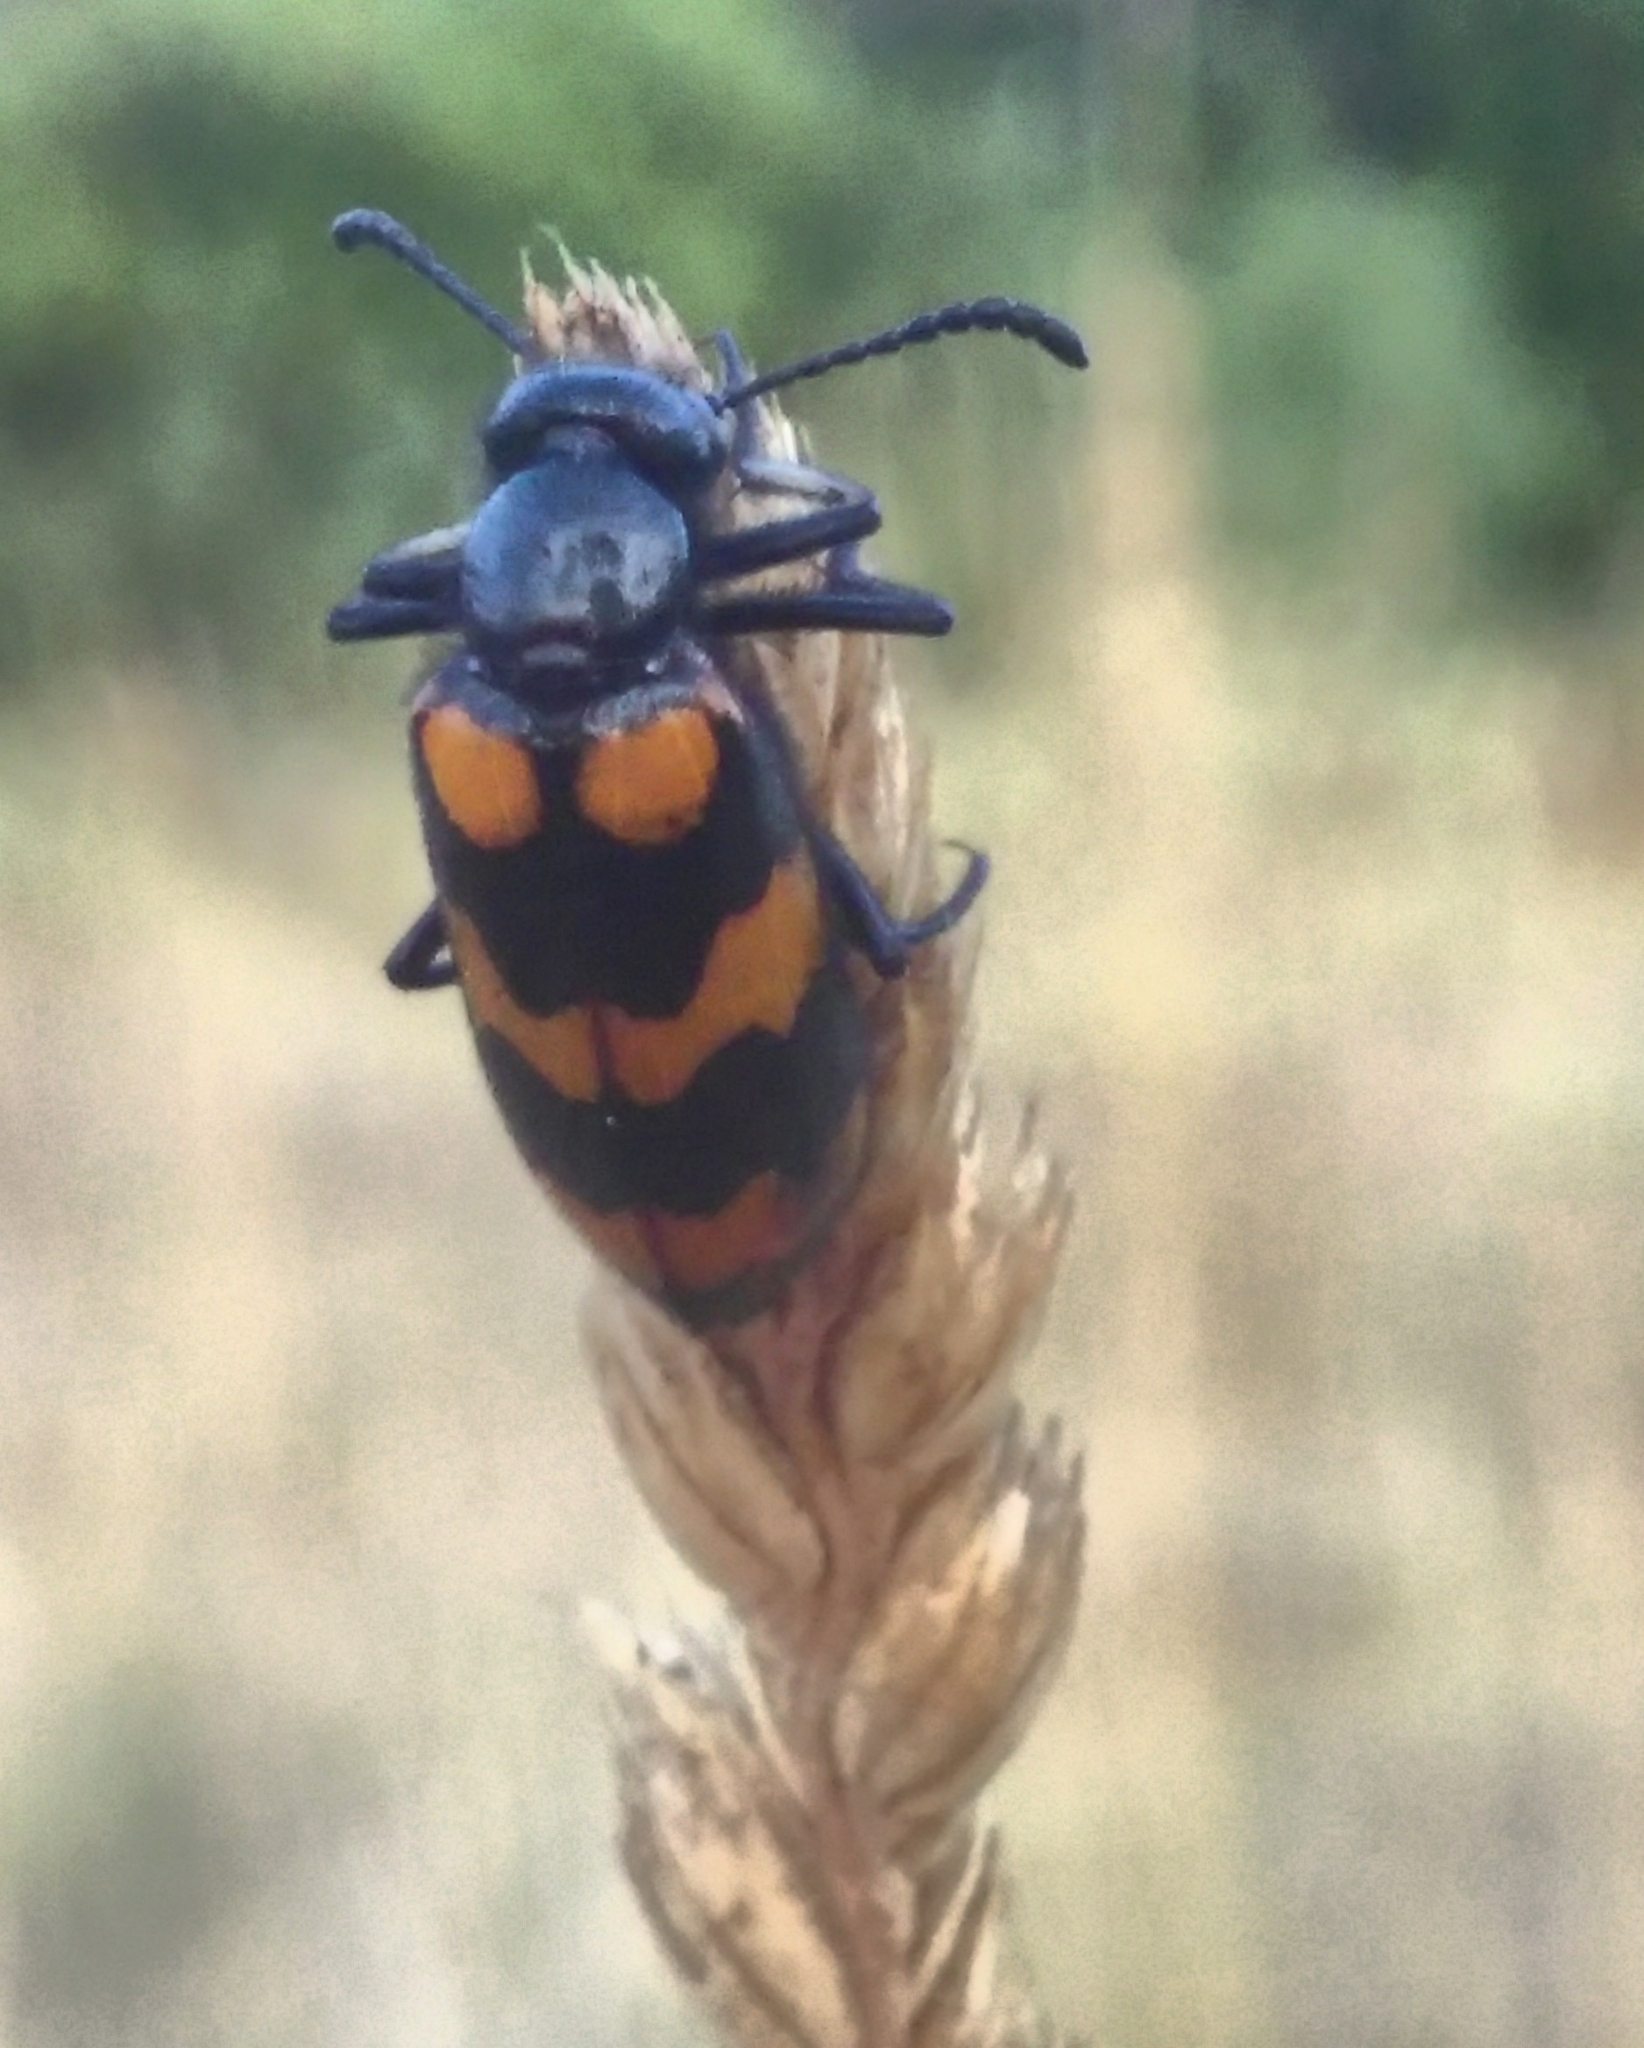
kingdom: Animalia
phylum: Arthropoda
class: Insecta
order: Coleoptera
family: Meloidae
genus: Mylabris
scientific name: Mylabris variabilis
